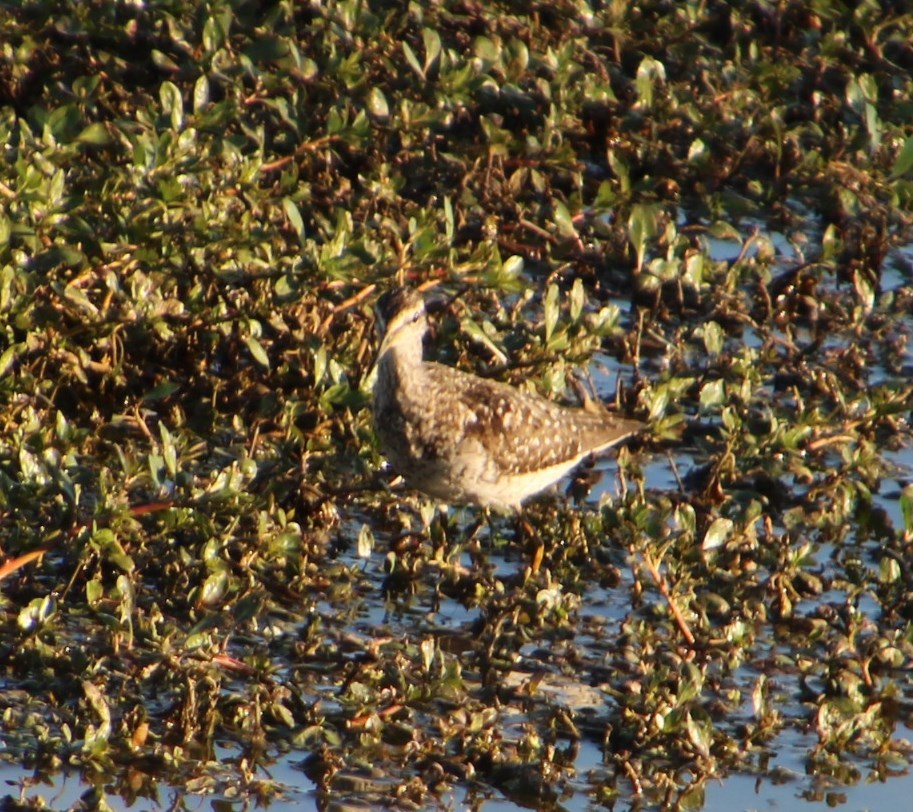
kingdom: Animalia
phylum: Chordata
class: Aves
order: Charadriiformes
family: Scolopacidae
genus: Tringa
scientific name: Tringa glareola
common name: Wood sandpiper
